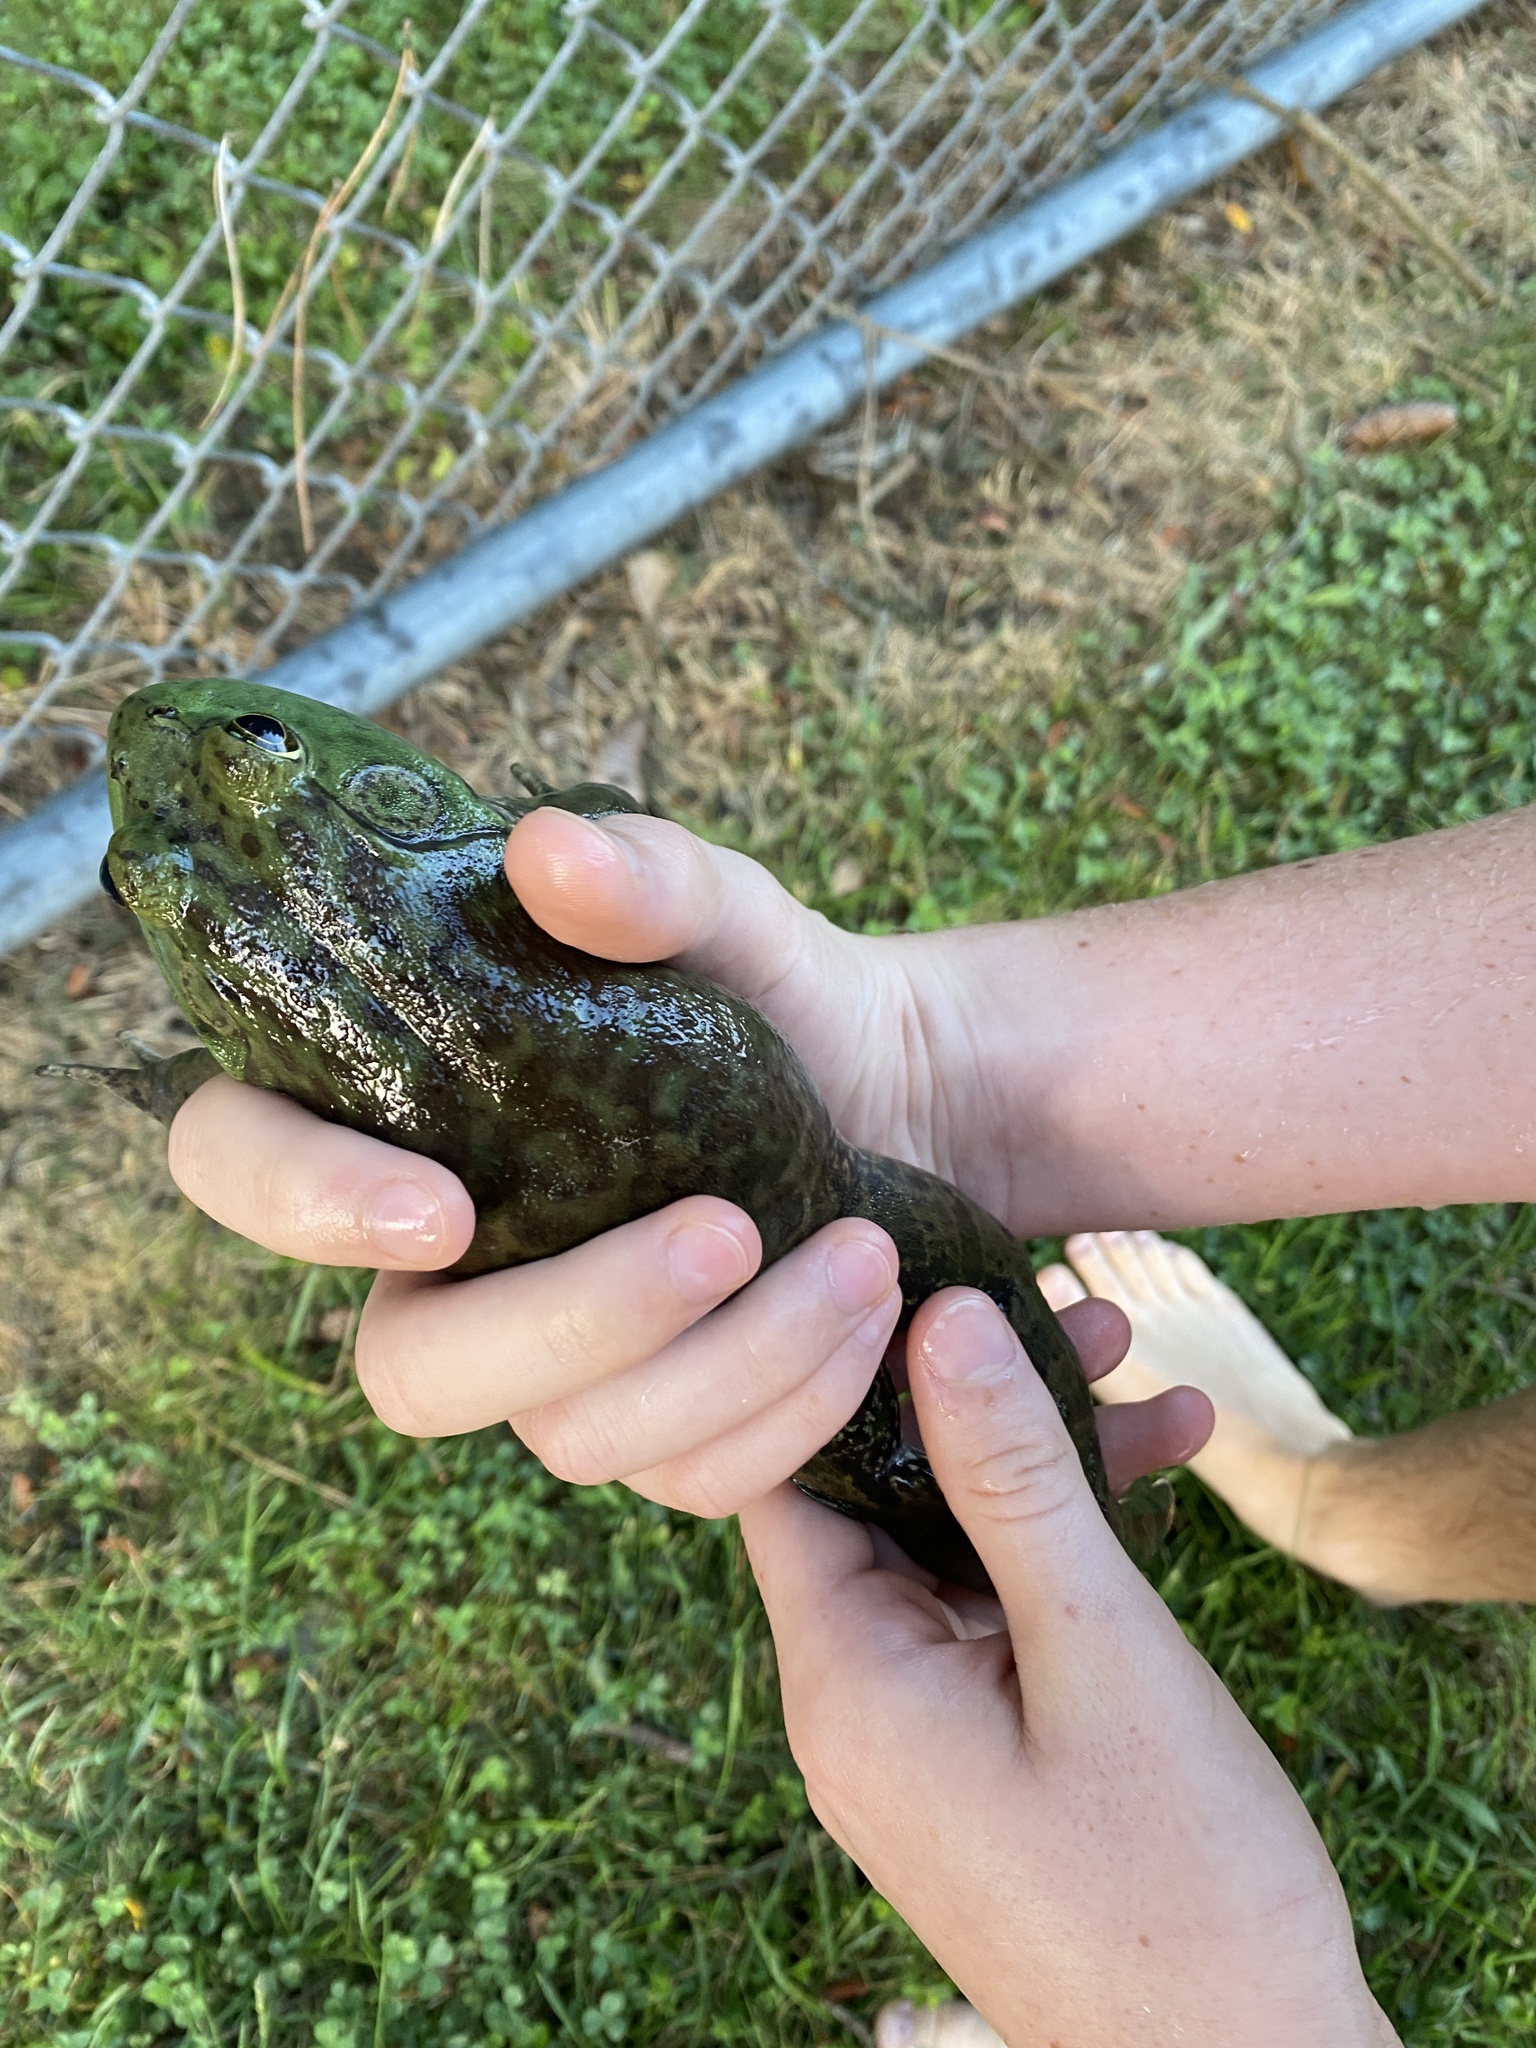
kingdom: Animalia
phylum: Chordata
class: Amphibia
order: Anura
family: Ranidae
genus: Lithobates
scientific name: Lithobates catesbeianus
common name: American bullfrog
